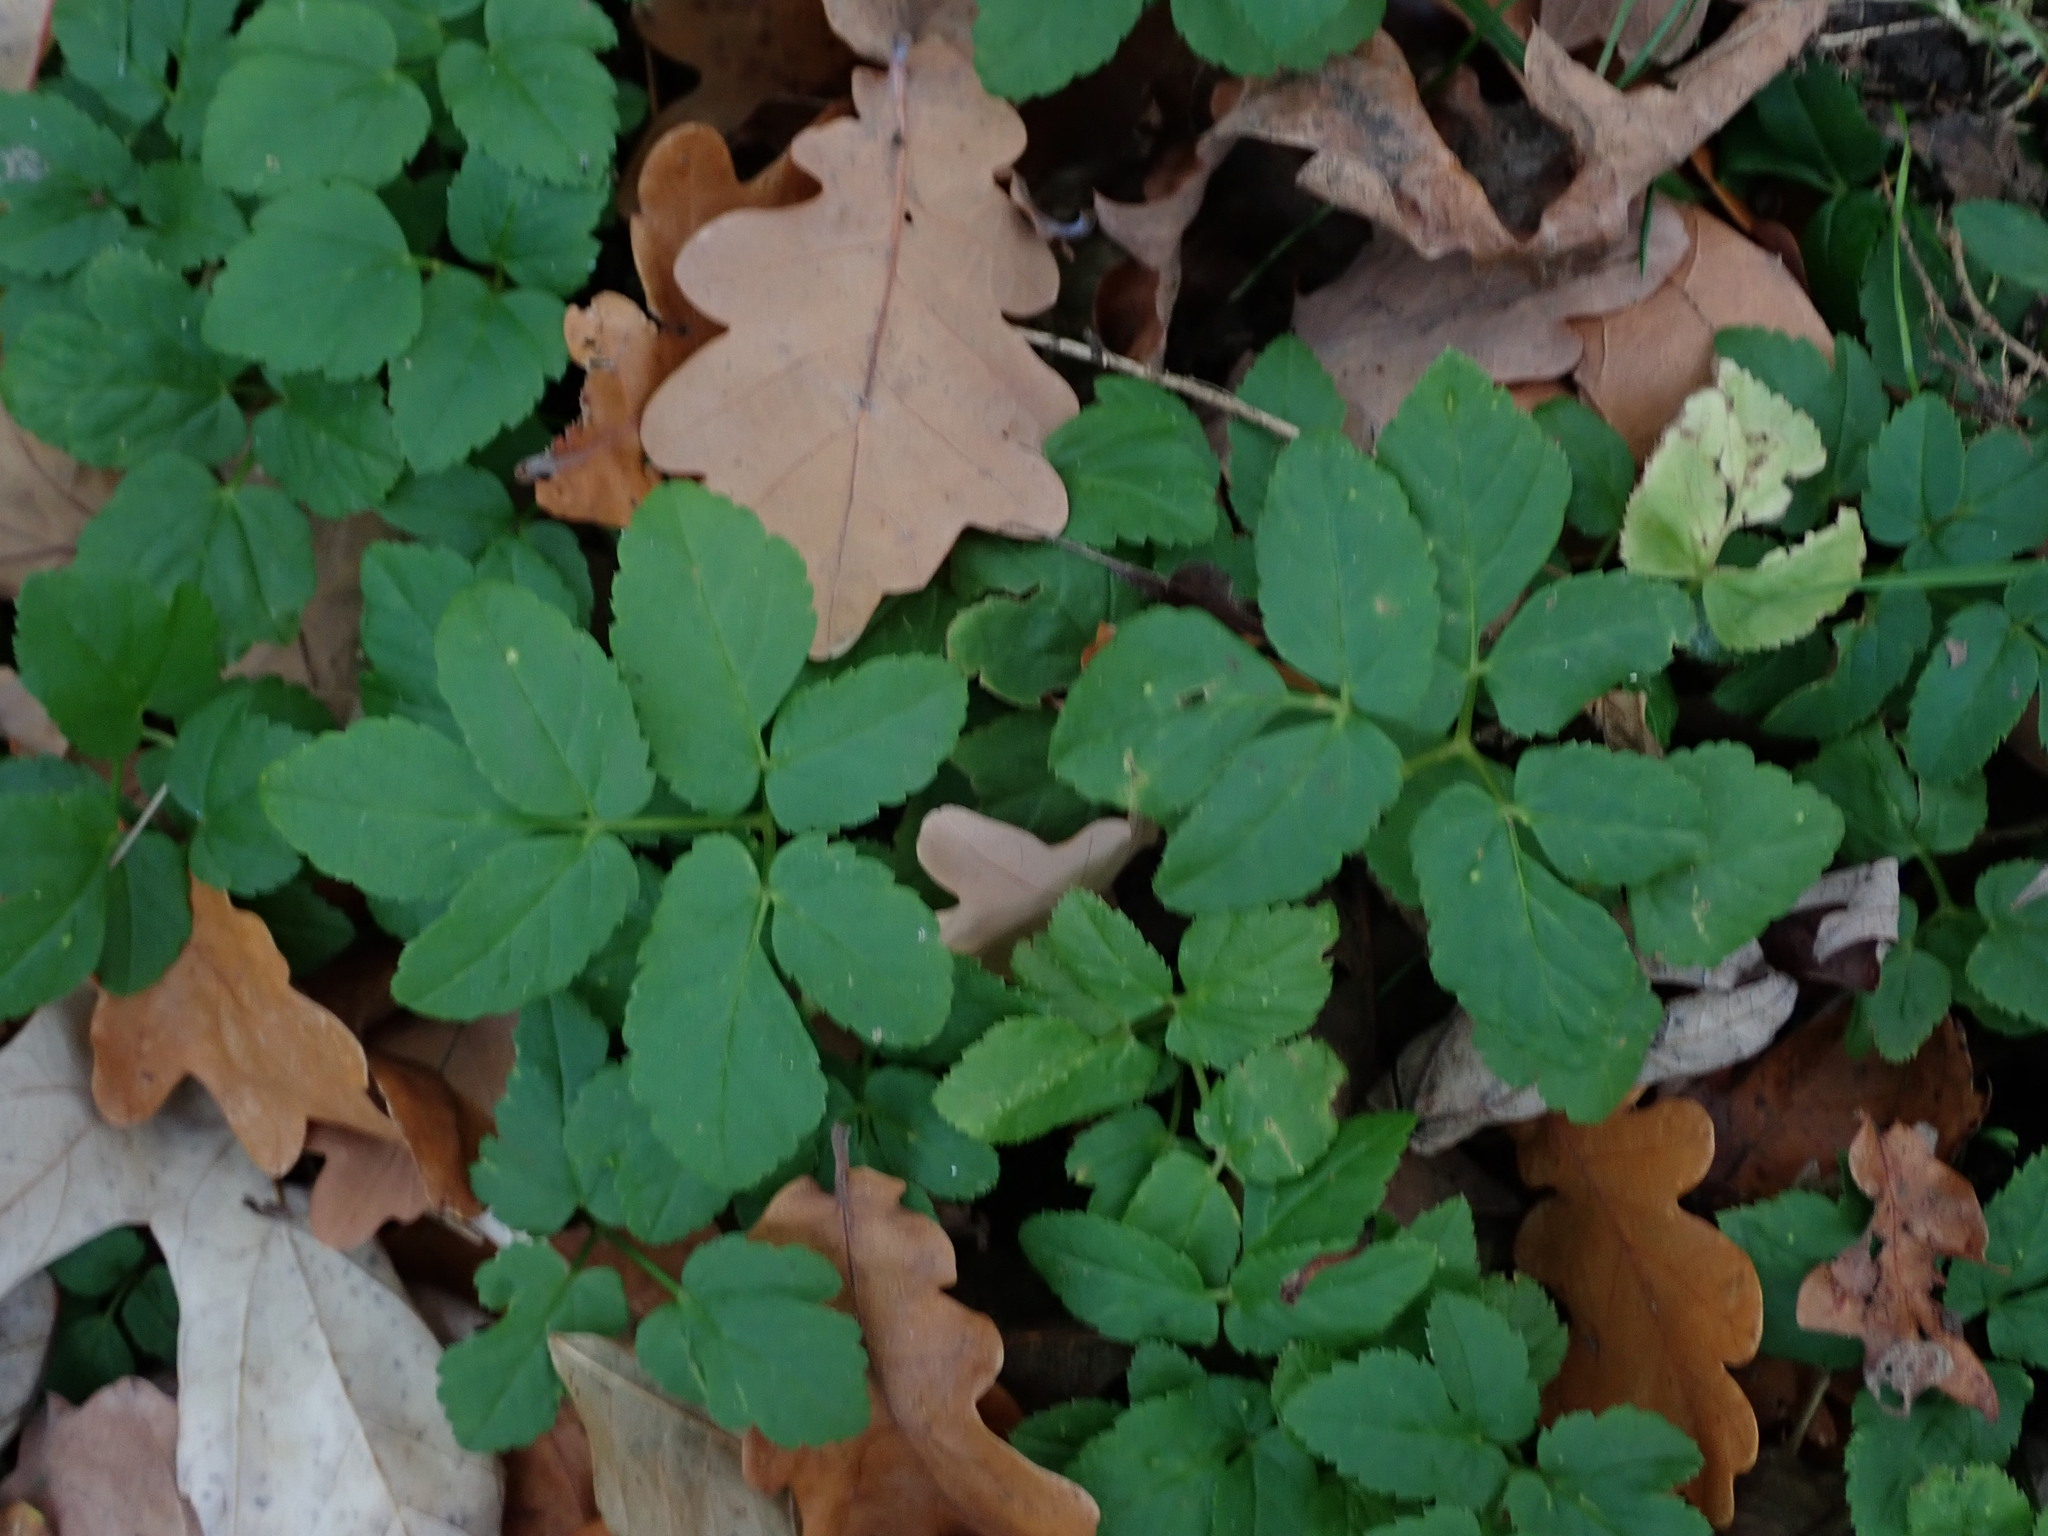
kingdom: Plantae
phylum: Tracheophyta
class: Magnoliopsida
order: Apiales
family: Apiaceae
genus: Aegopodium
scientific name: Aegopodium podagraria
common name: Ground-elder
